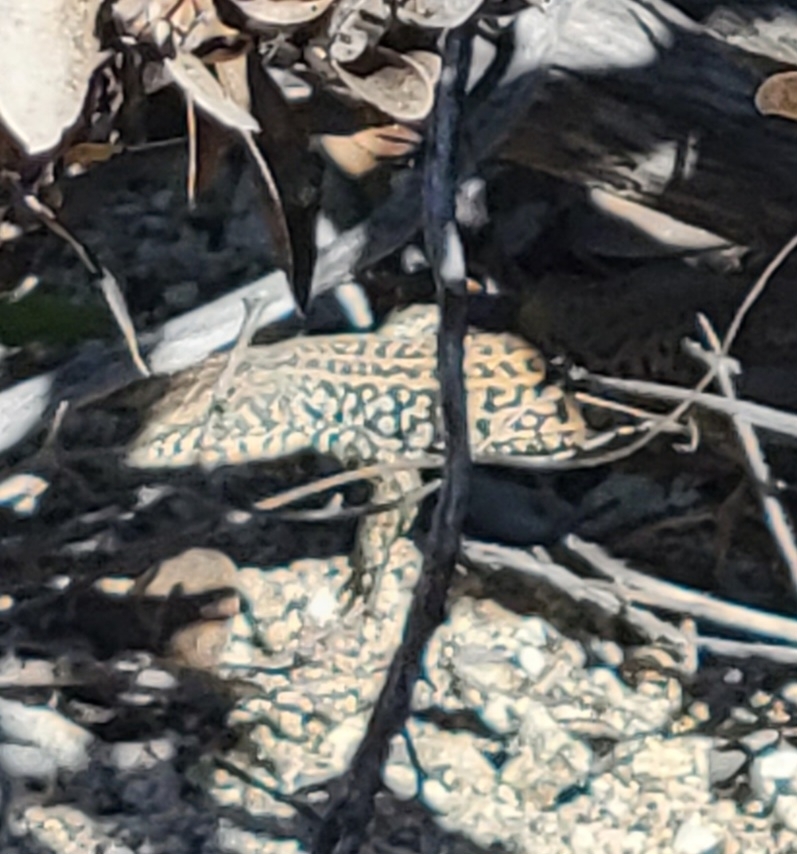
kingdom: Animalia
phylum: Chordata
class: Squamata
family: Teiidae
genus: Aspidoscelis
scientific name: Aspidoscelis tigris
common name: Tiger whiptail
